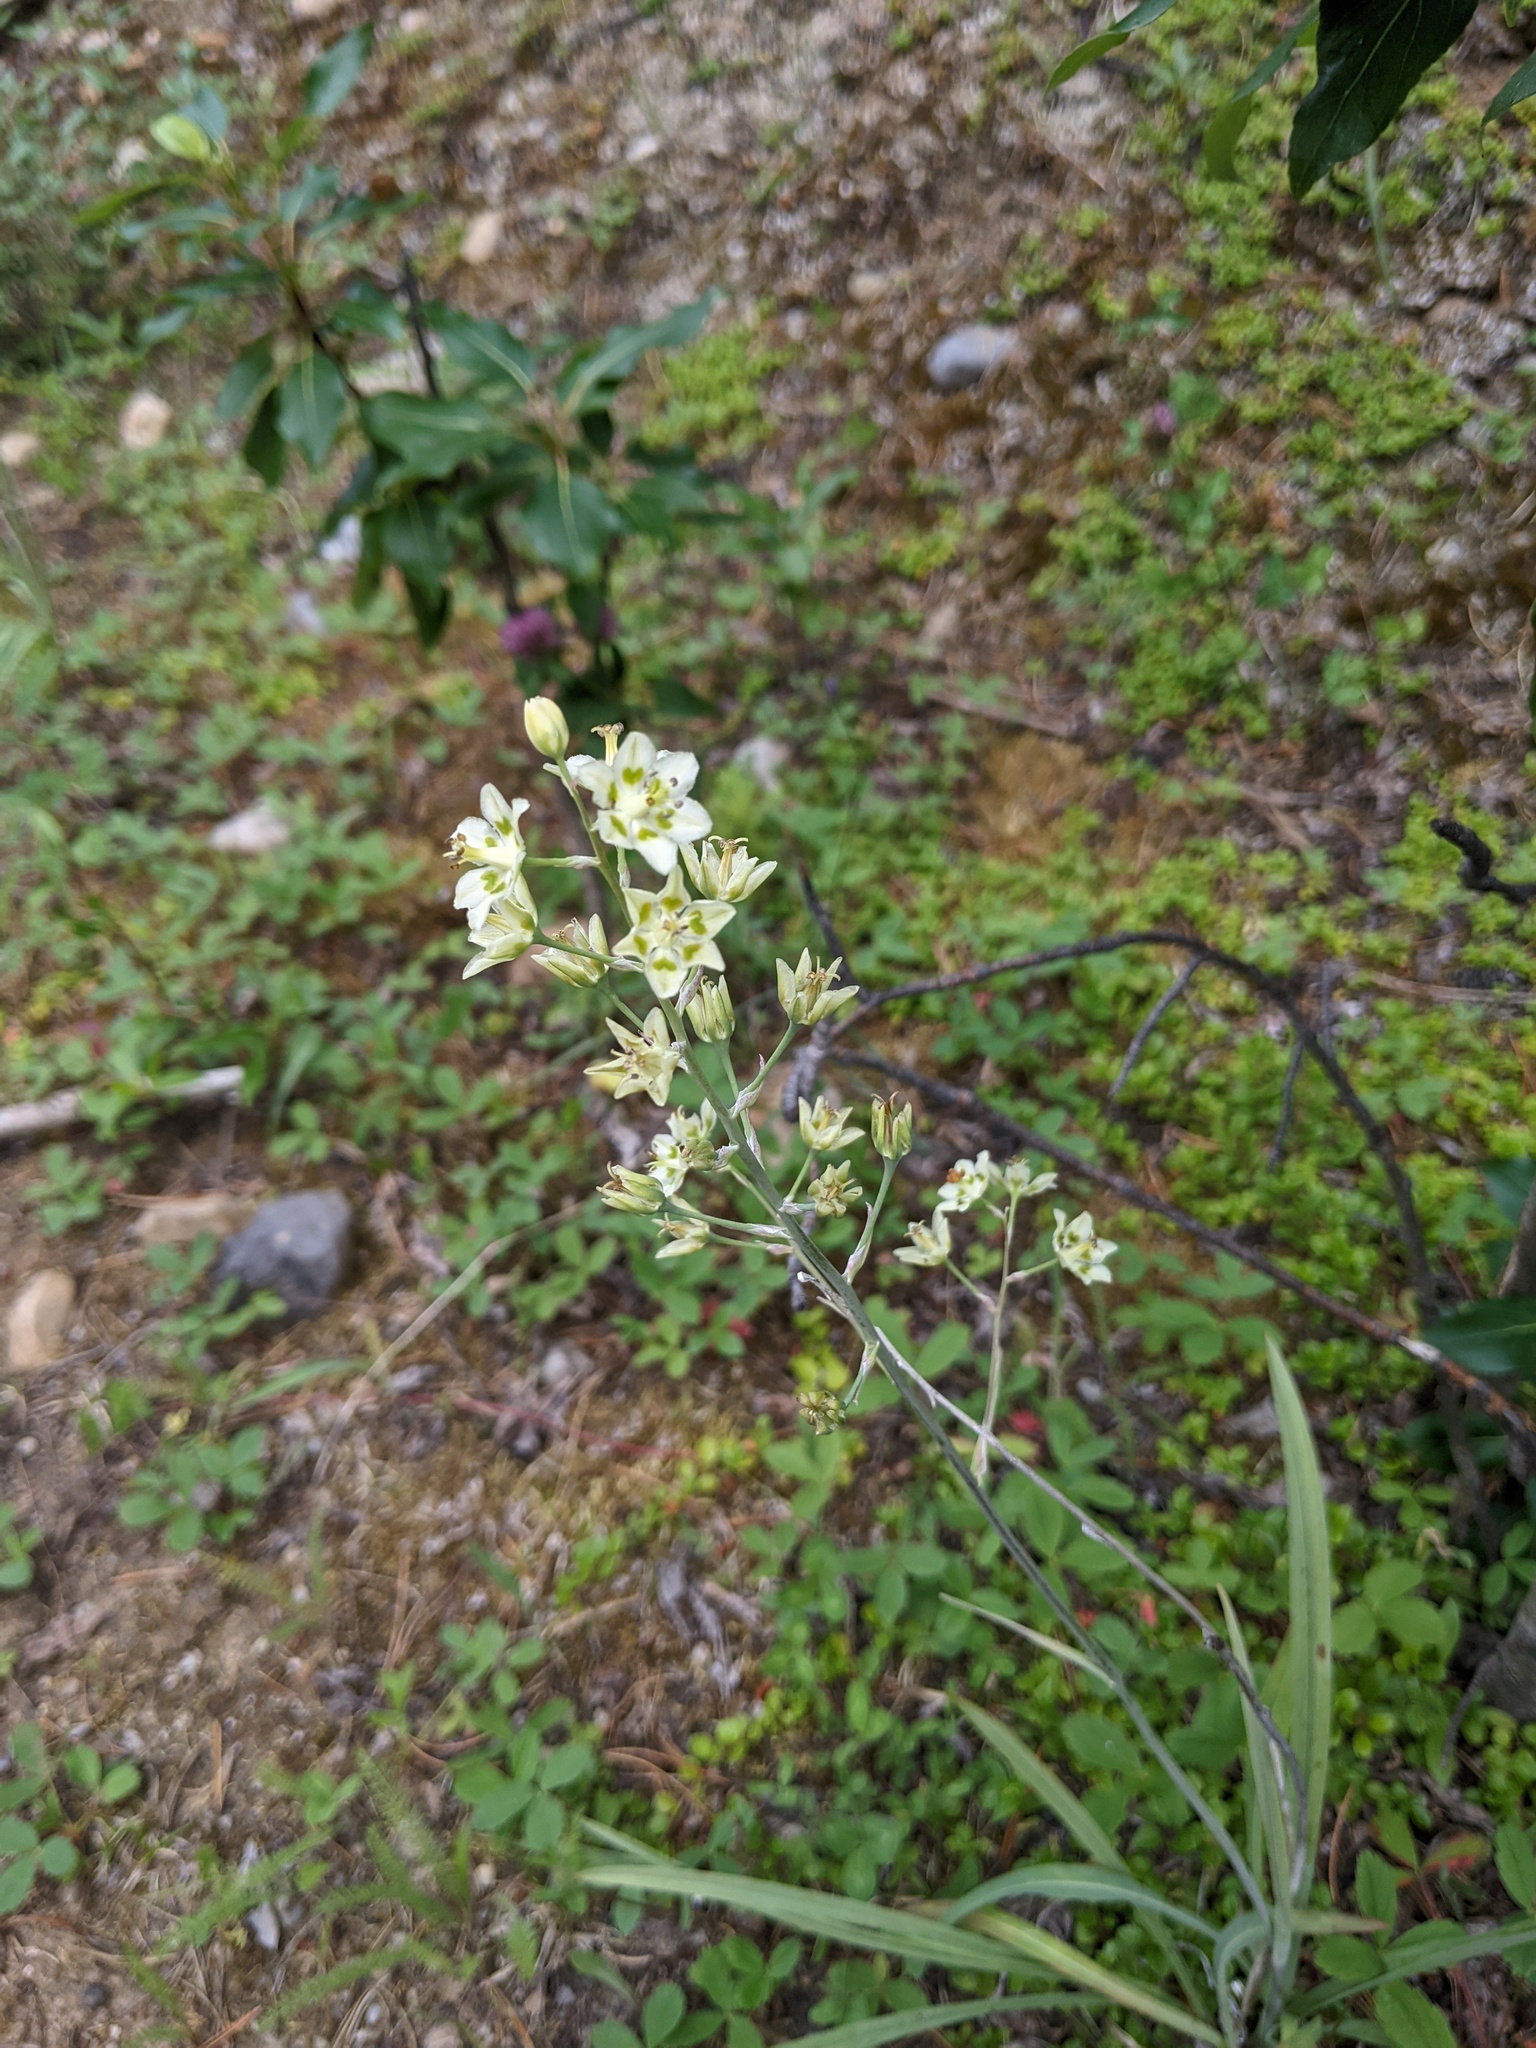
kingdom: Plantae
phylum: Tracheophyta
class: Liliopsida
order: Liliales
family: Melanthiaceae
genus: Anticlea
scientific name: Anticlea elegans
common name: Mountain death camas
